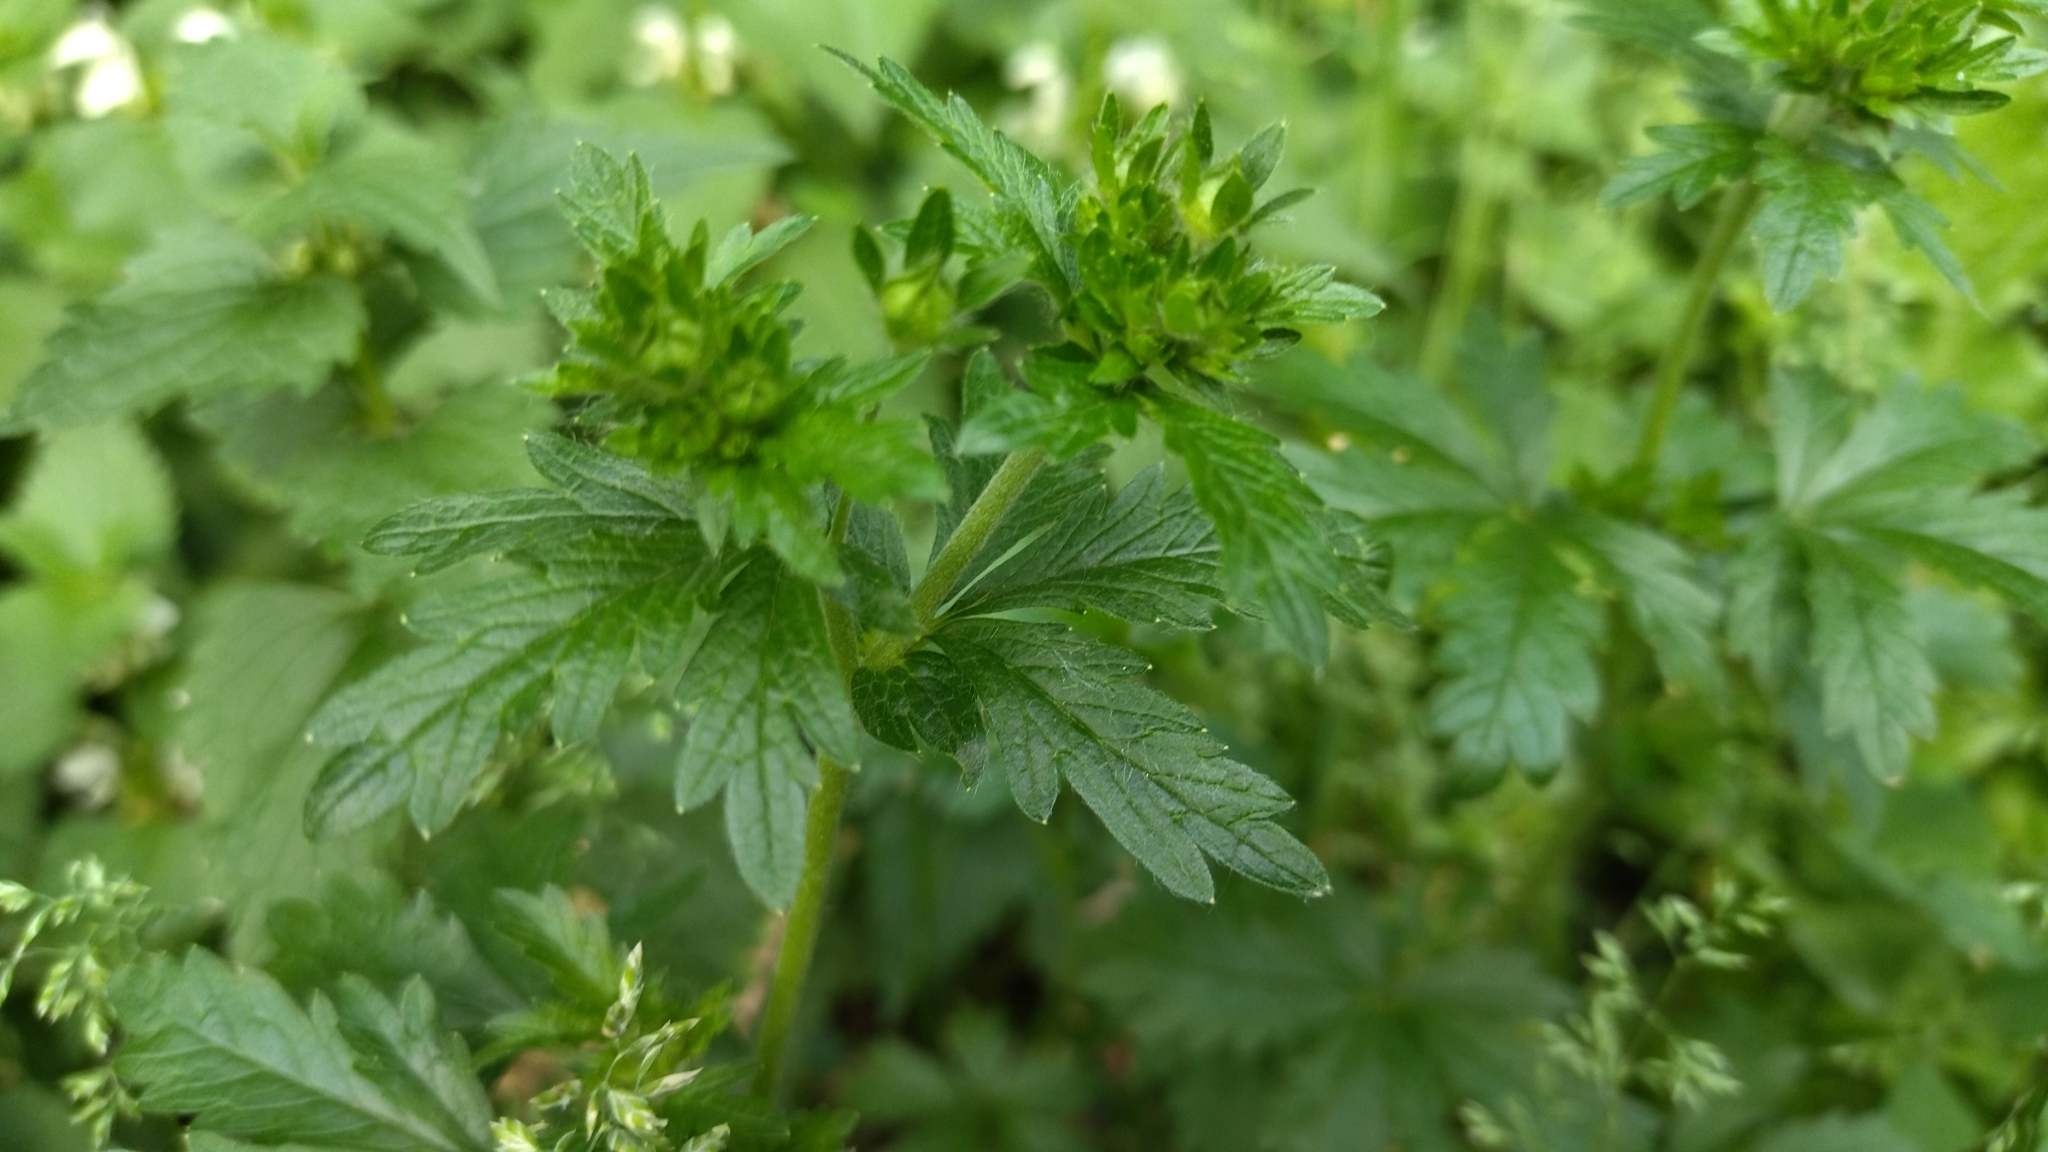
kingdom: Plantae
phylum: Tracheophyta
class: Magnoliopsida
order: Rosales
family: Rosaceae
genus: Potentilla
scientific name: Potentilla intermedia
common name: Downy cinquefoil
